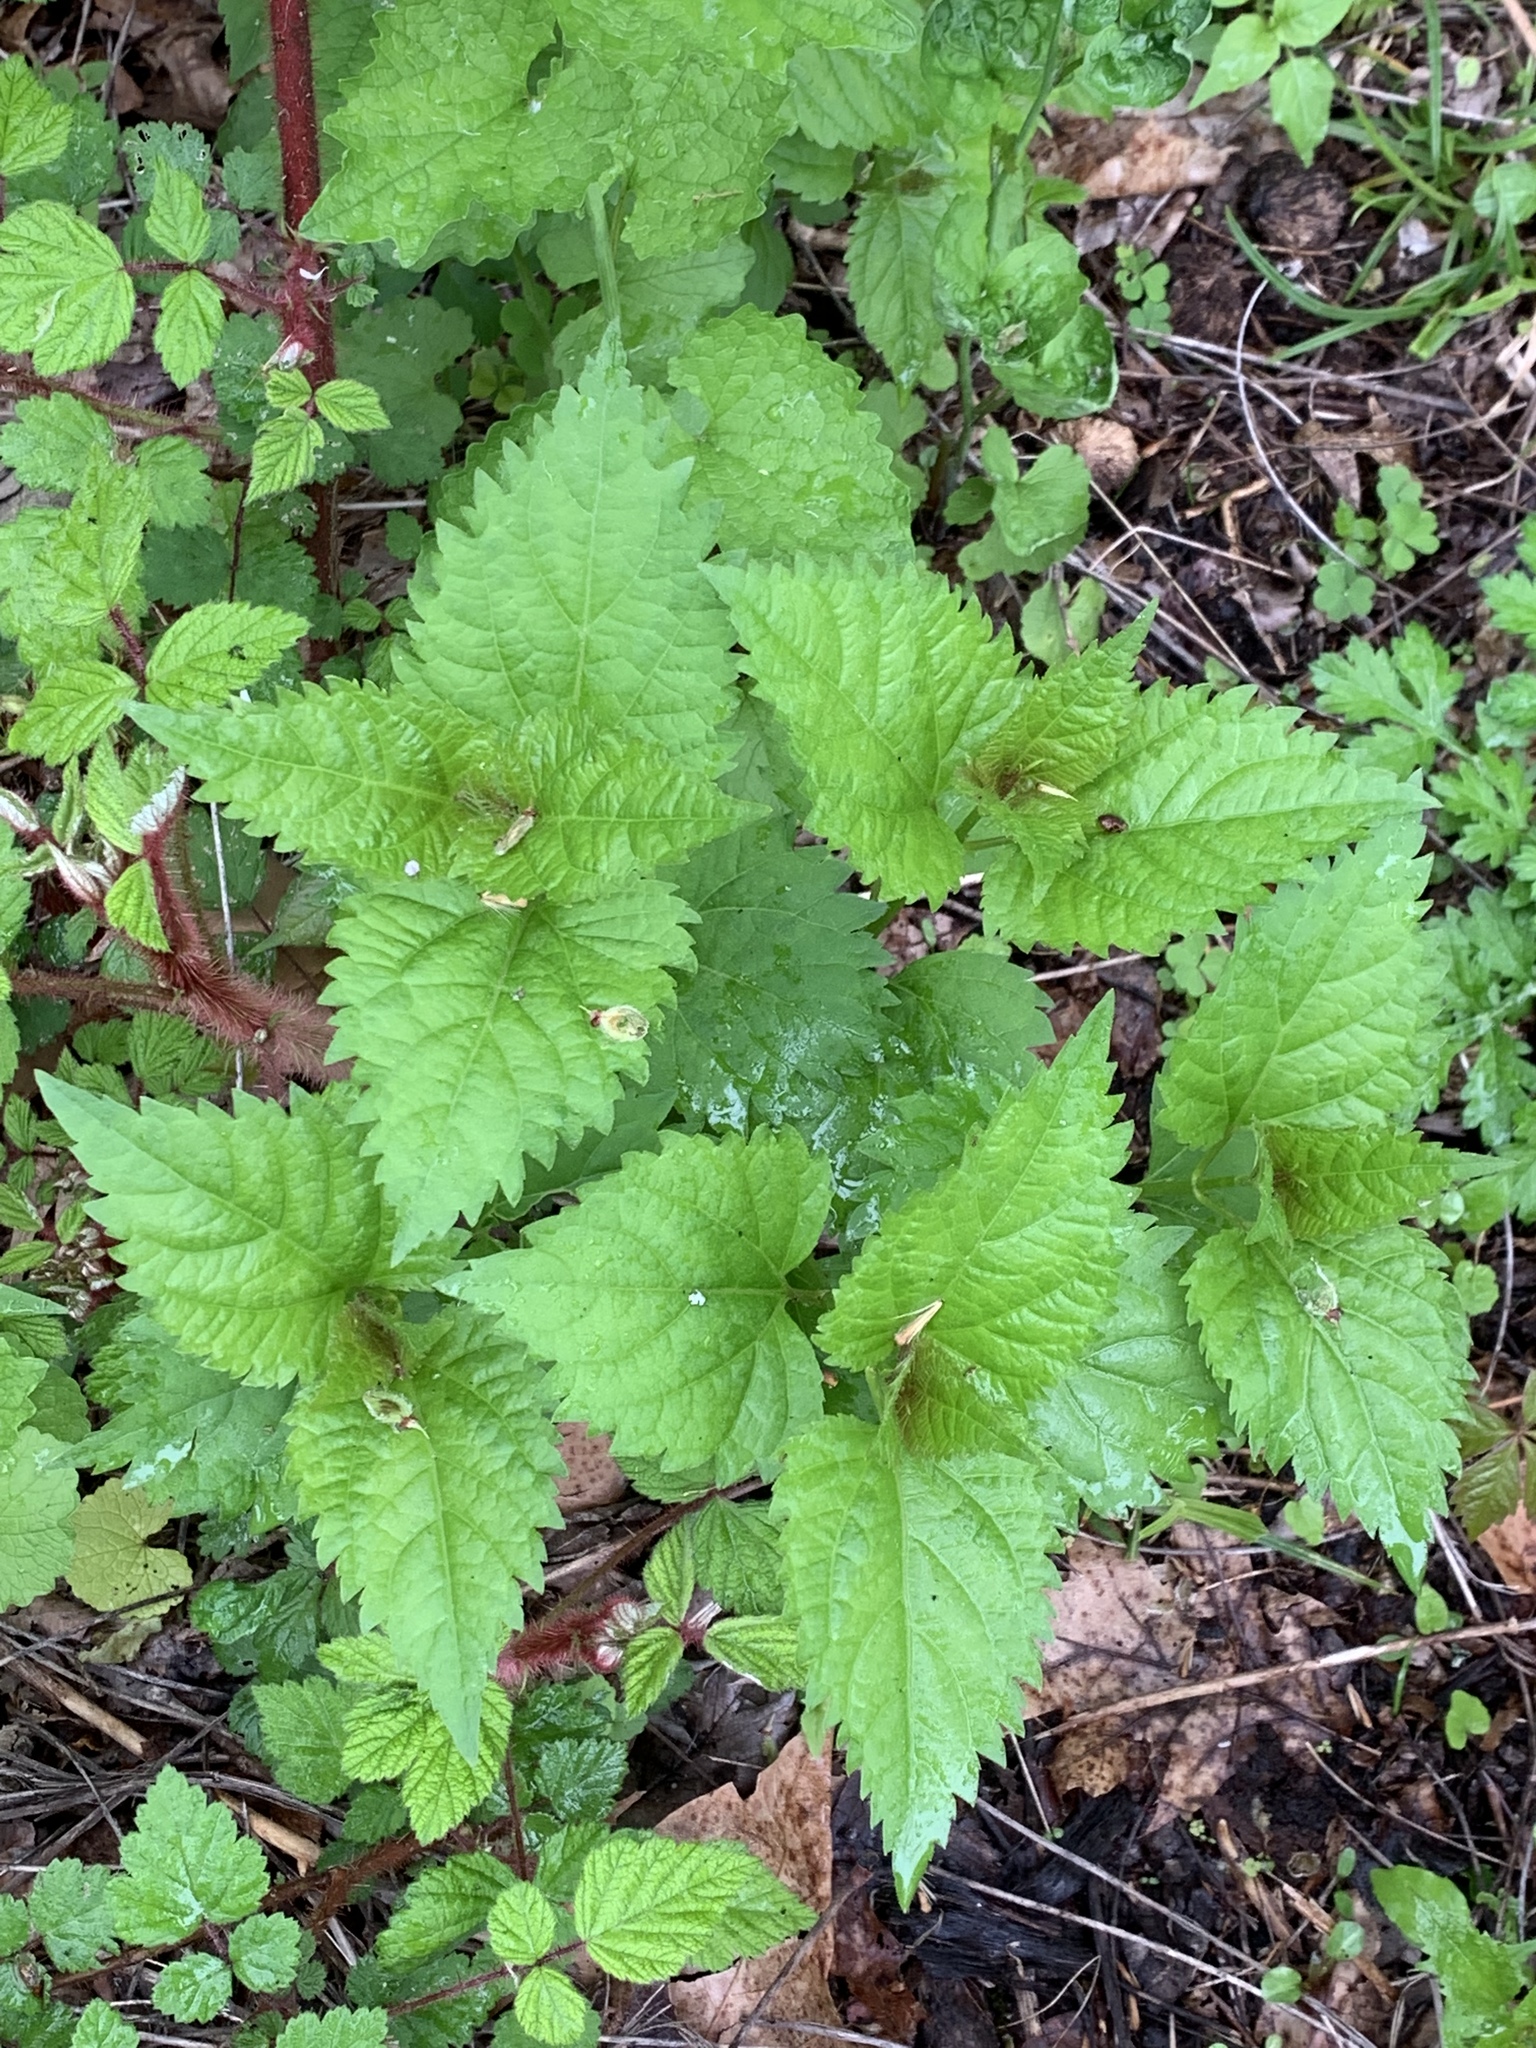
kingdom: Plantae
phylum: Tracheophyta
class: Magnoliopsida
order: Asterales
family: Asteraceae
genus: Ageratina
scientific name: Ageratina altissima
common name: White snakeroot
